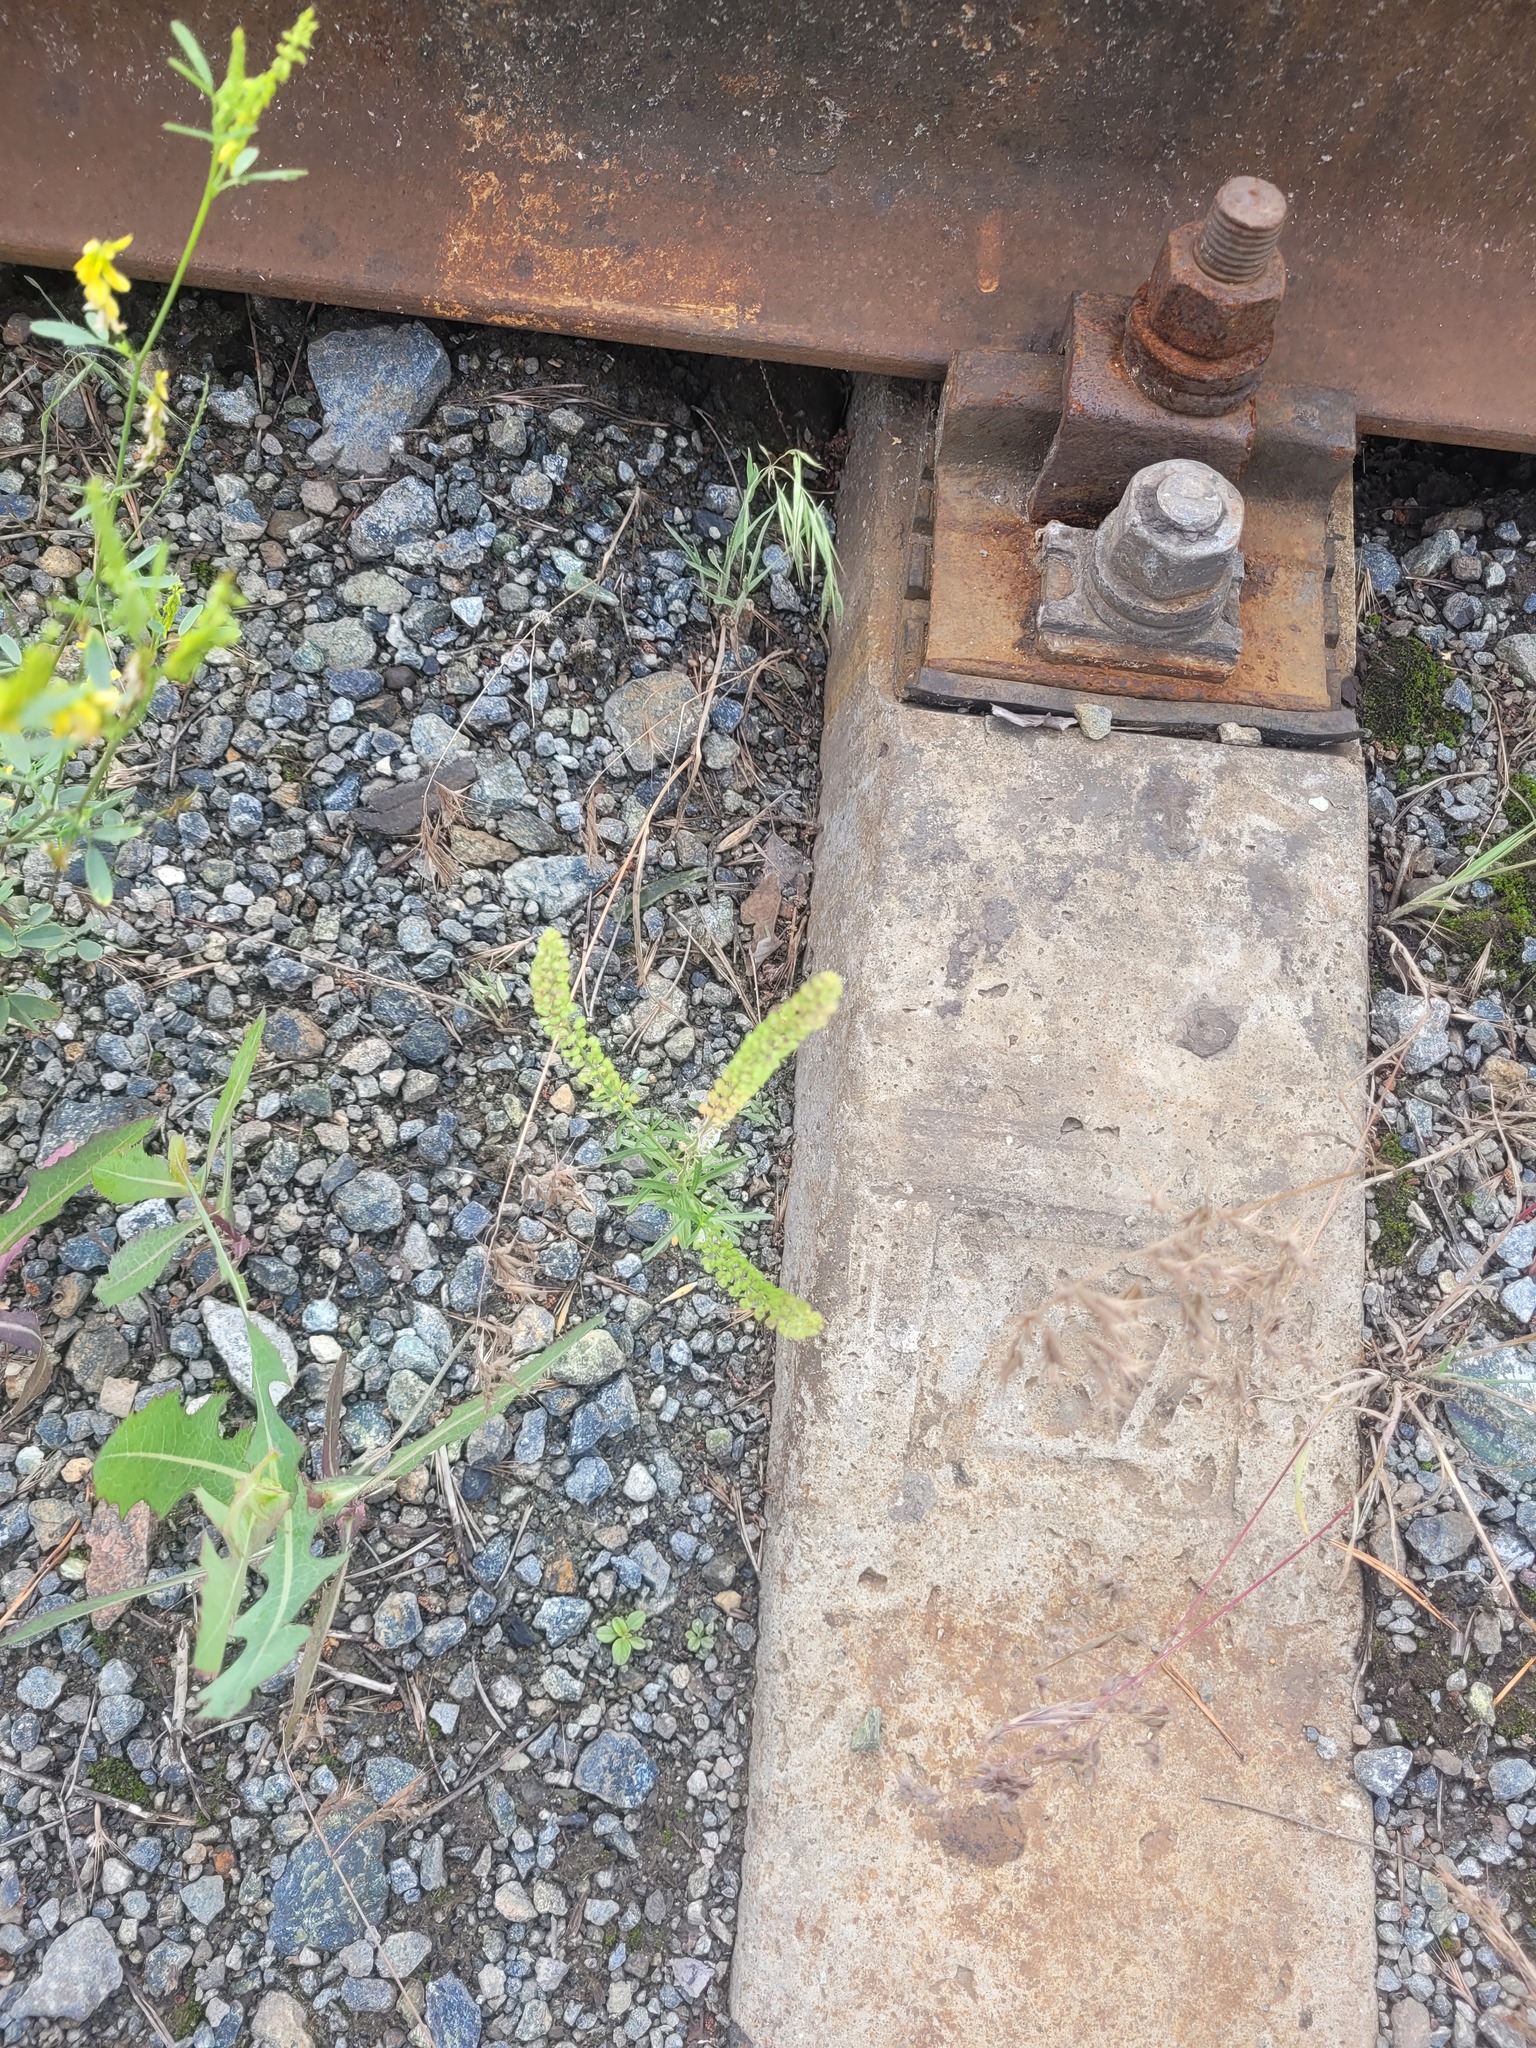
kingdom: Plantae
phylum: Tracheophyta
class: Magnoliopsida
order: Brassicales
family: Brassicaceae
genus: Lepidium
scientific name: Lepidium densiflorum
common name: Miner's pepperwort
